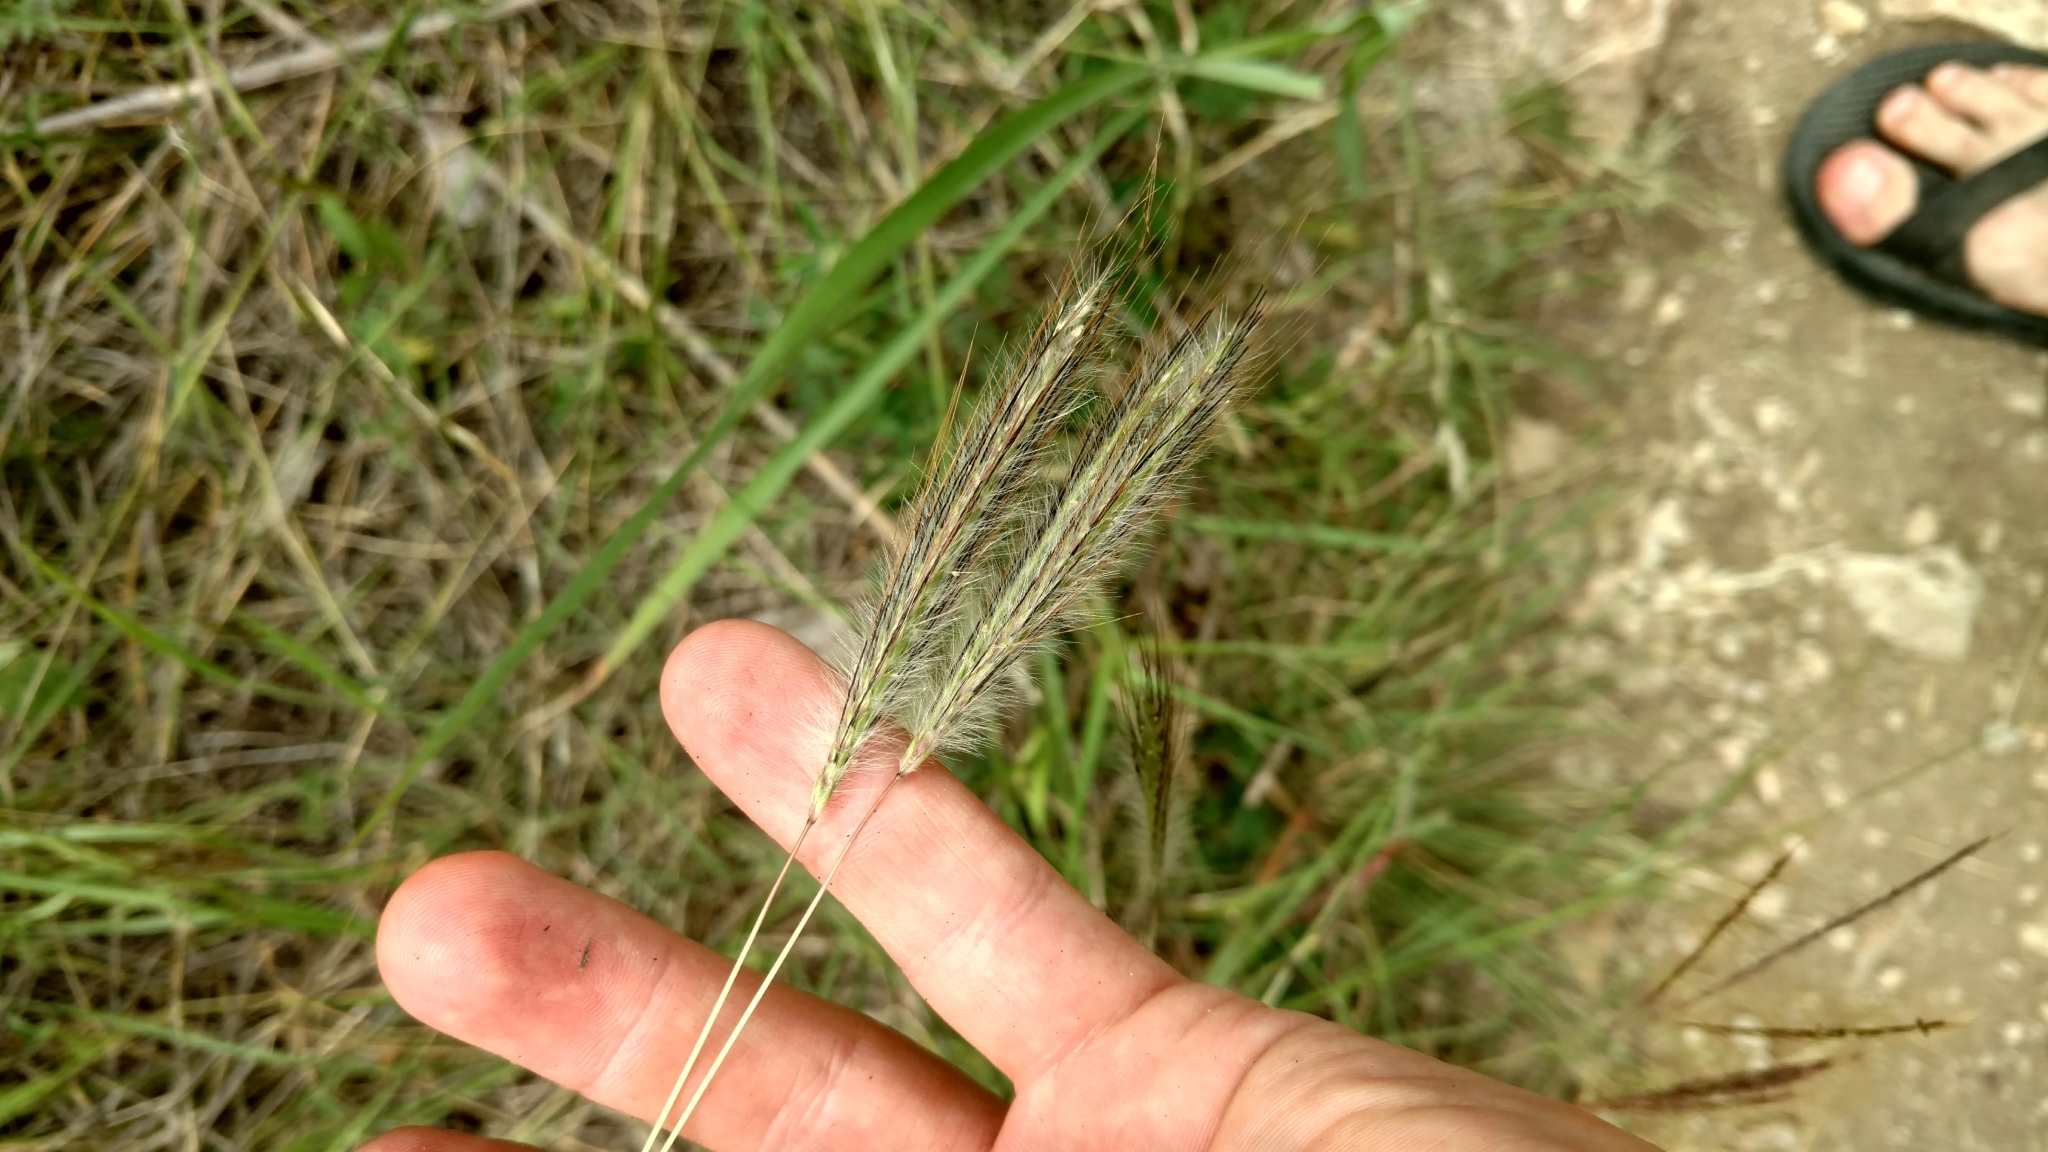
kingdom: Plantae
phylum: Tracheophyta
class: Liliopsida
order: Poales
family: Poaceae
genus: Dichanthium
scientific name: Dichanthium sericeum
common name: Silky bluestem
